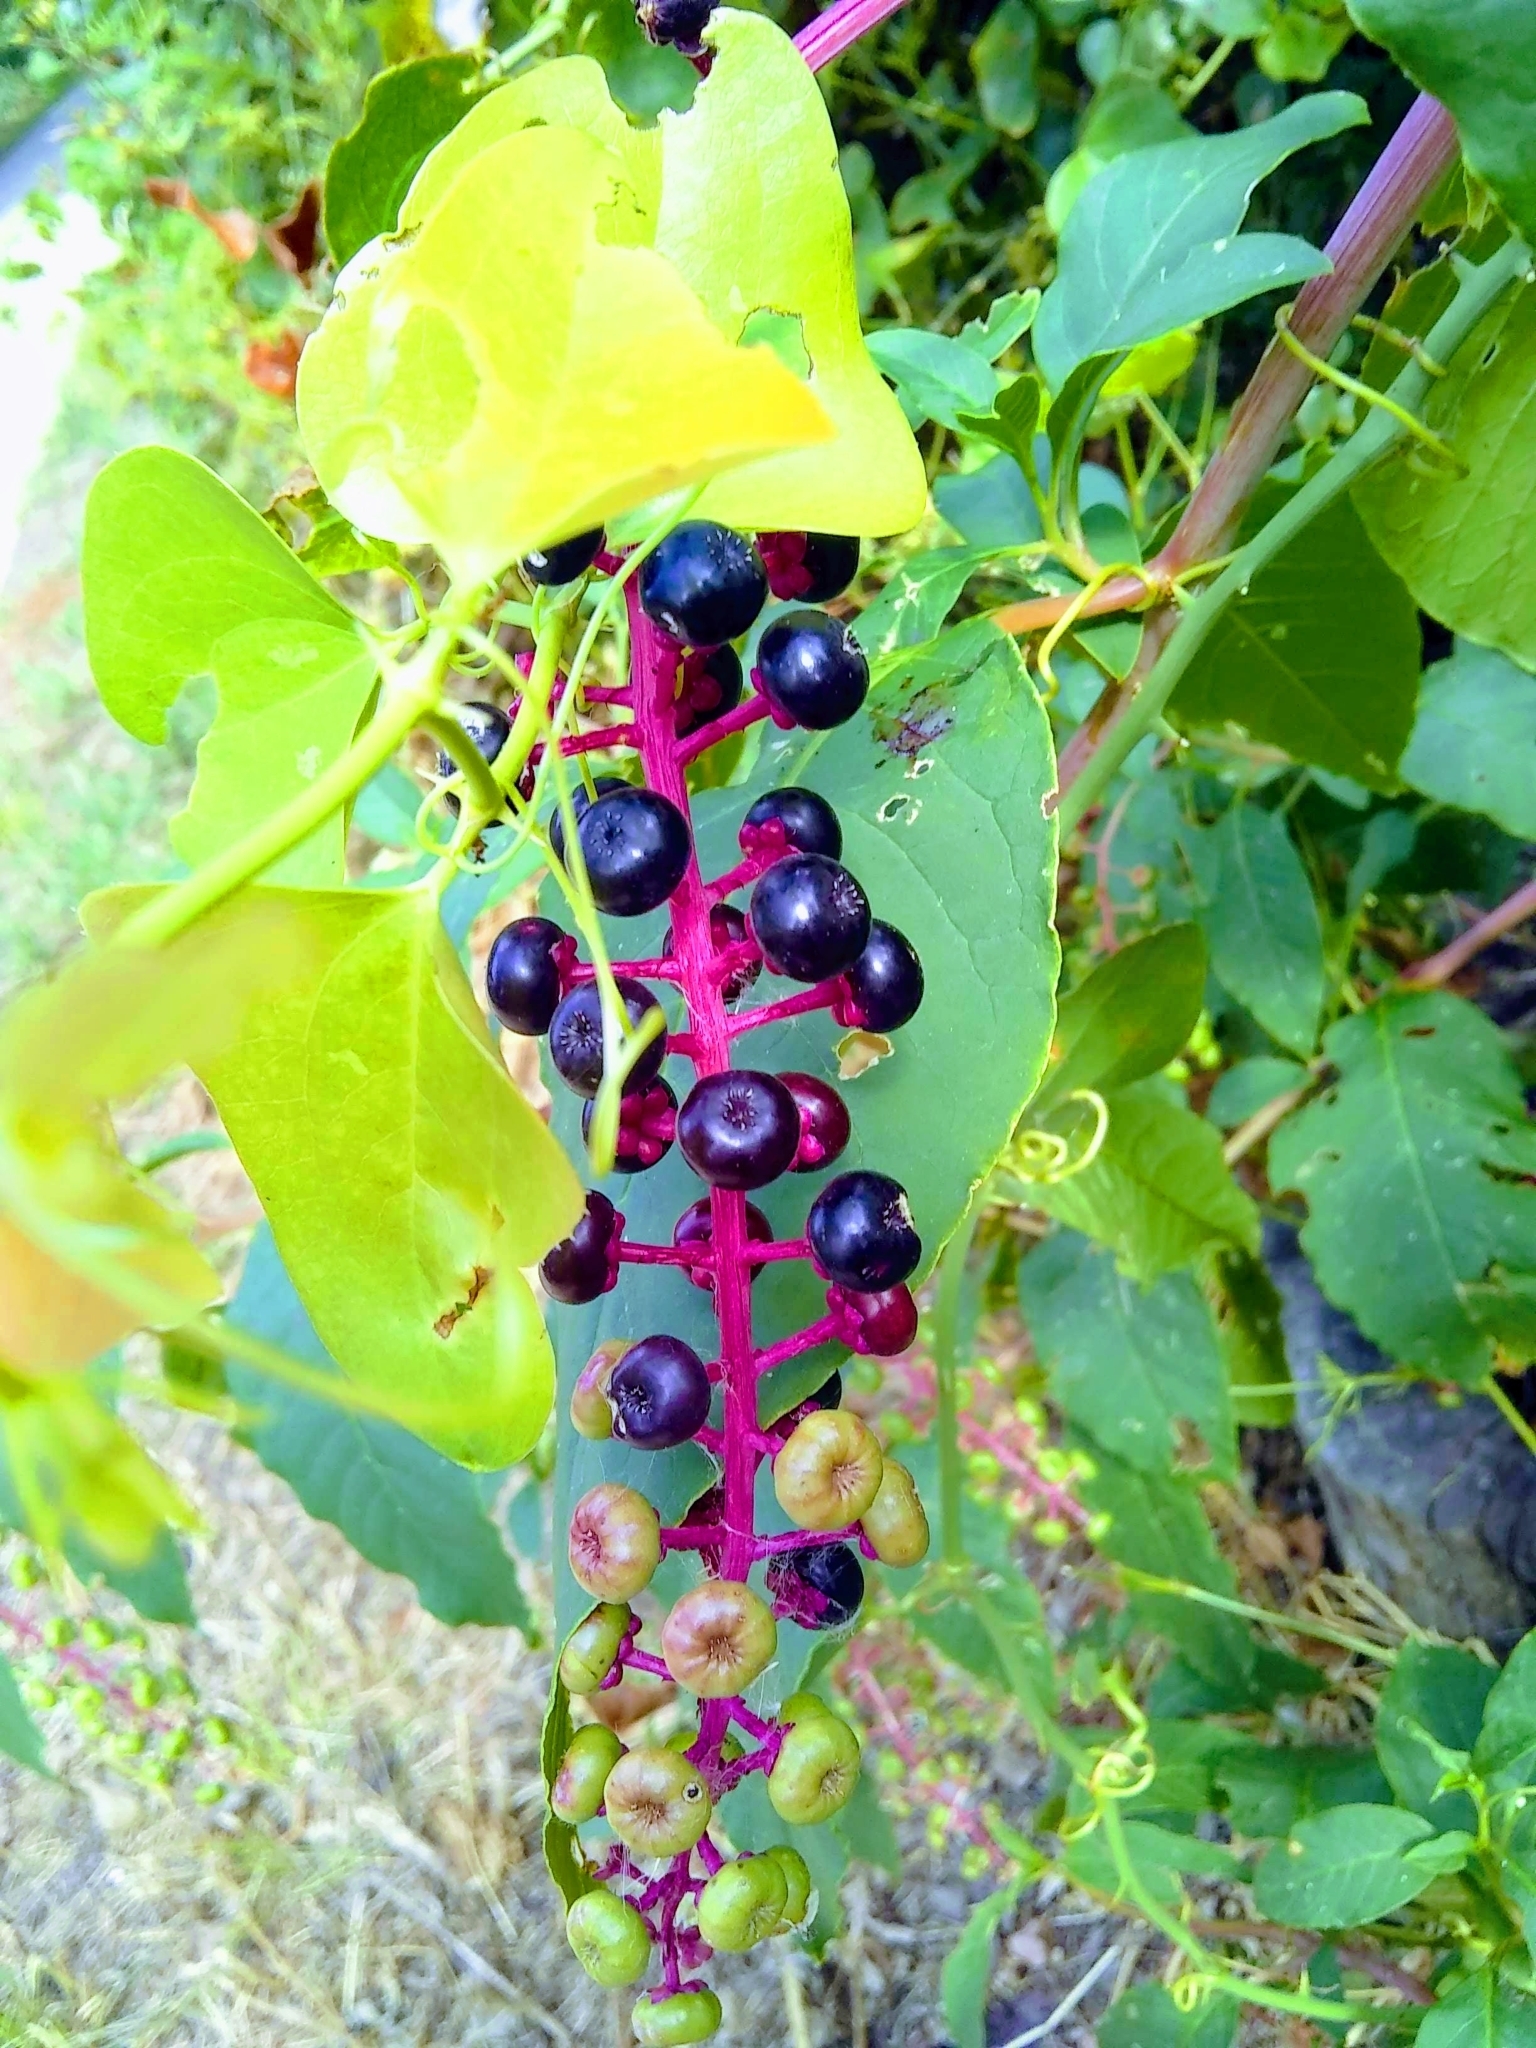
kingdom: Plantae
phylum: Tracheophyta
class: Magnoliopsida
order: Caryophyllales
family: Phytolaccaceae
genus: Phytolacca
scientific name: Phytolacca americana
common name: American pokeweed
